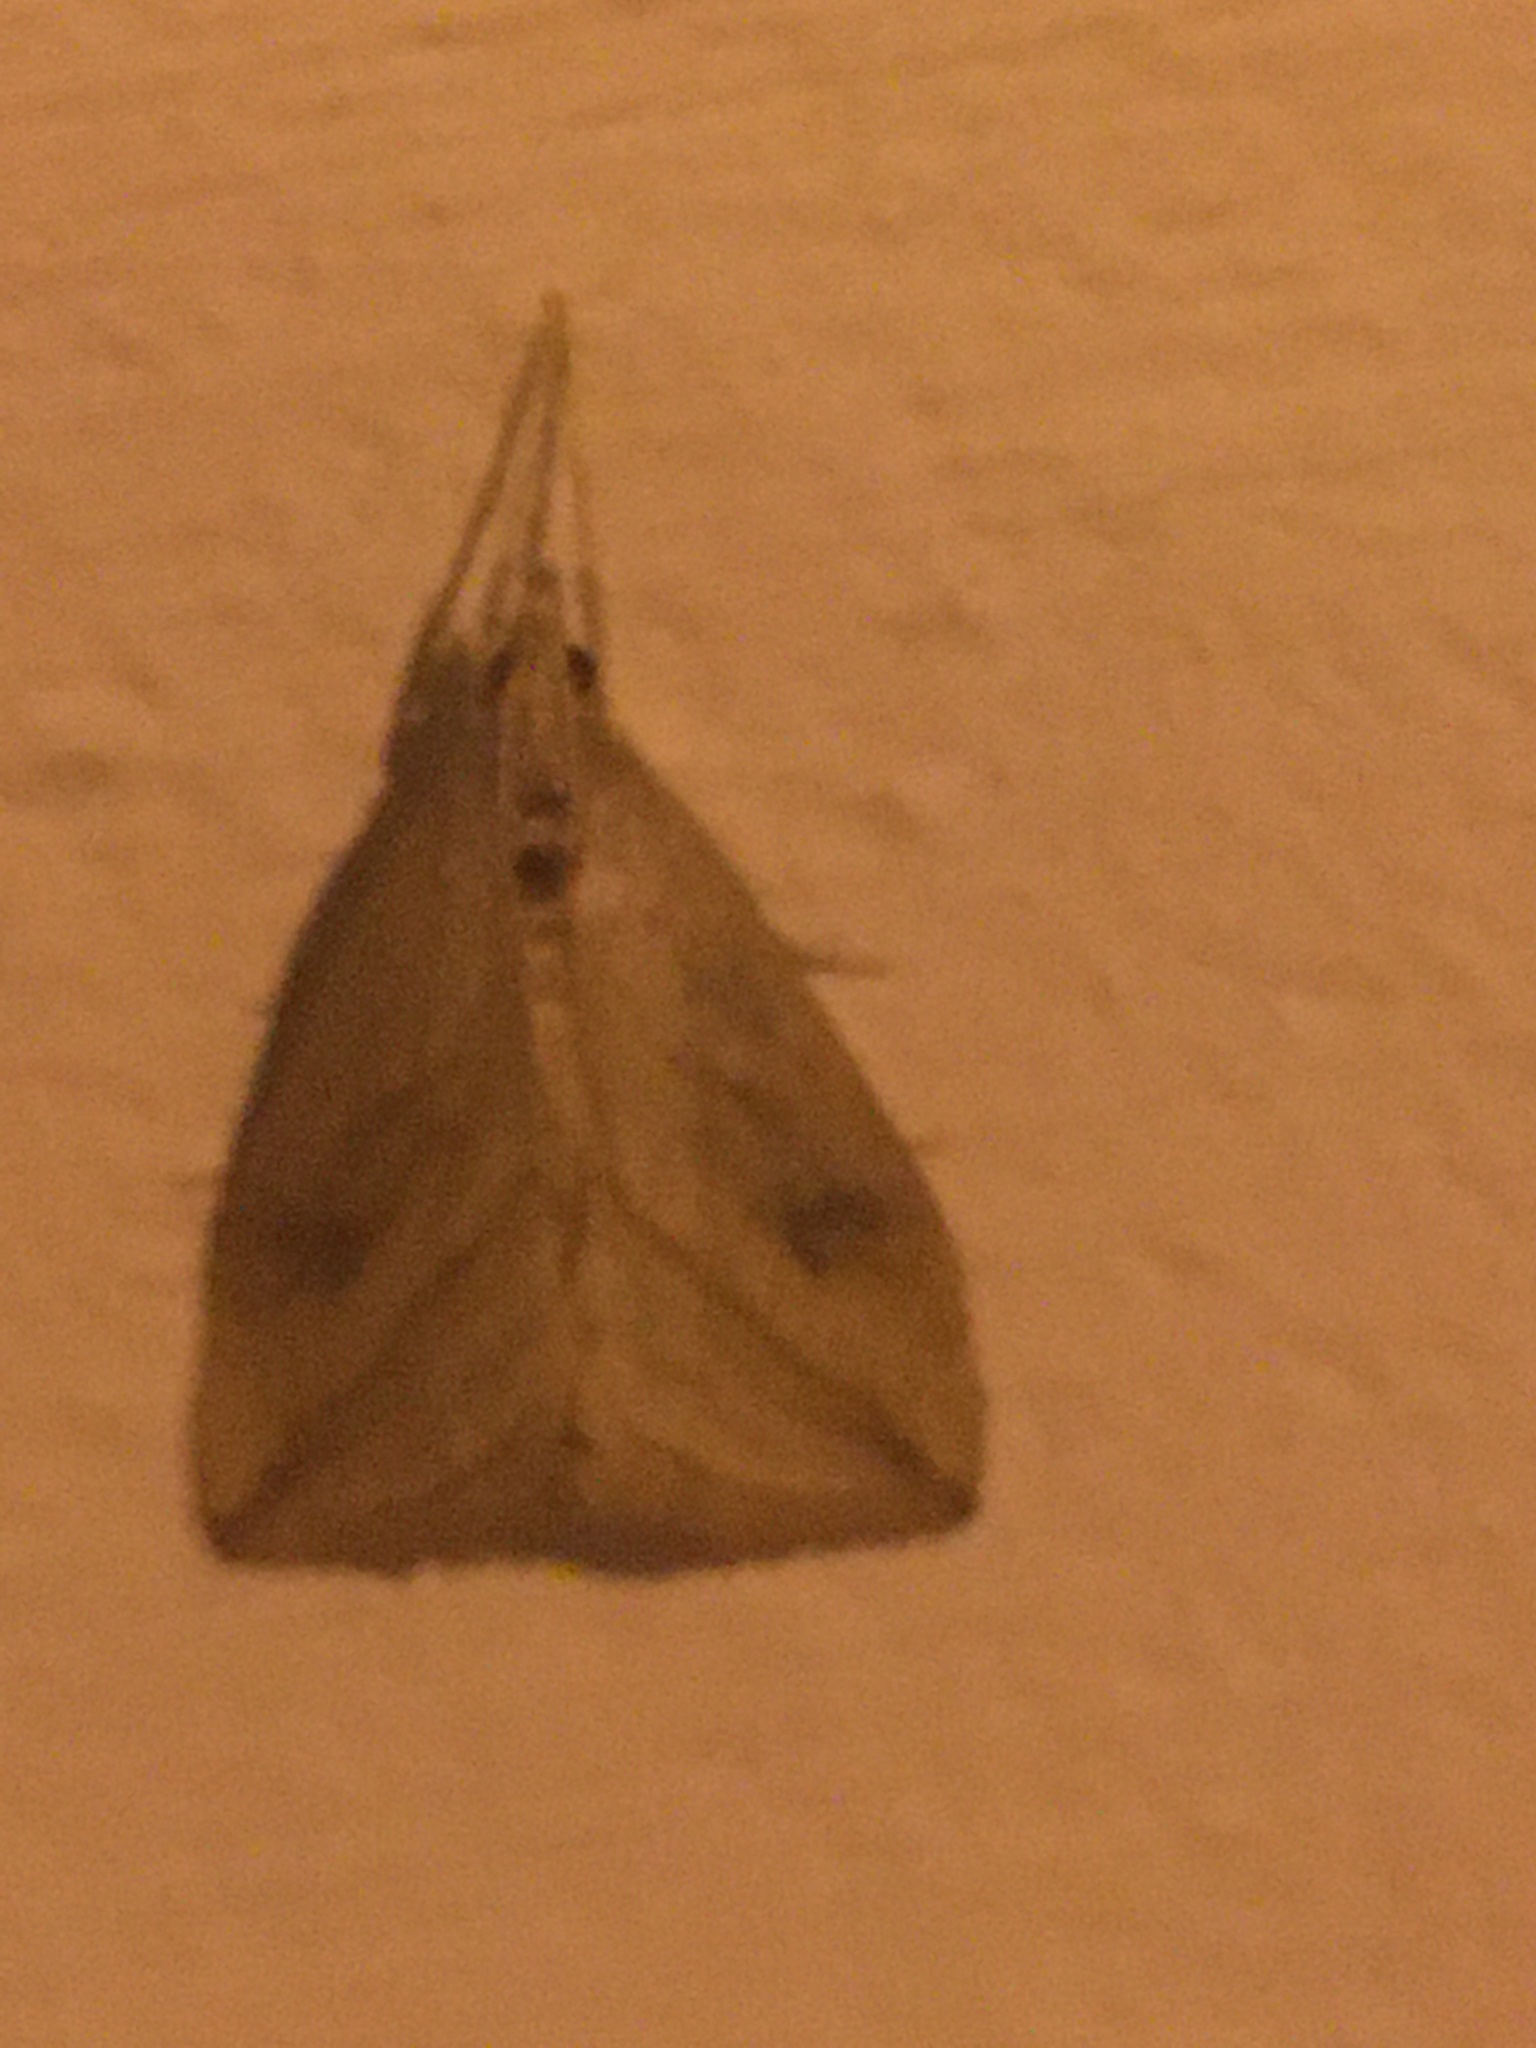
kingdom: Animalia
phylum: Arthropoda
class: Insecta
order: Lepidoptera
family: Crambidae
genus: Evergestis
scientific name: Evergestis forficalis
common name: Garden pebble
